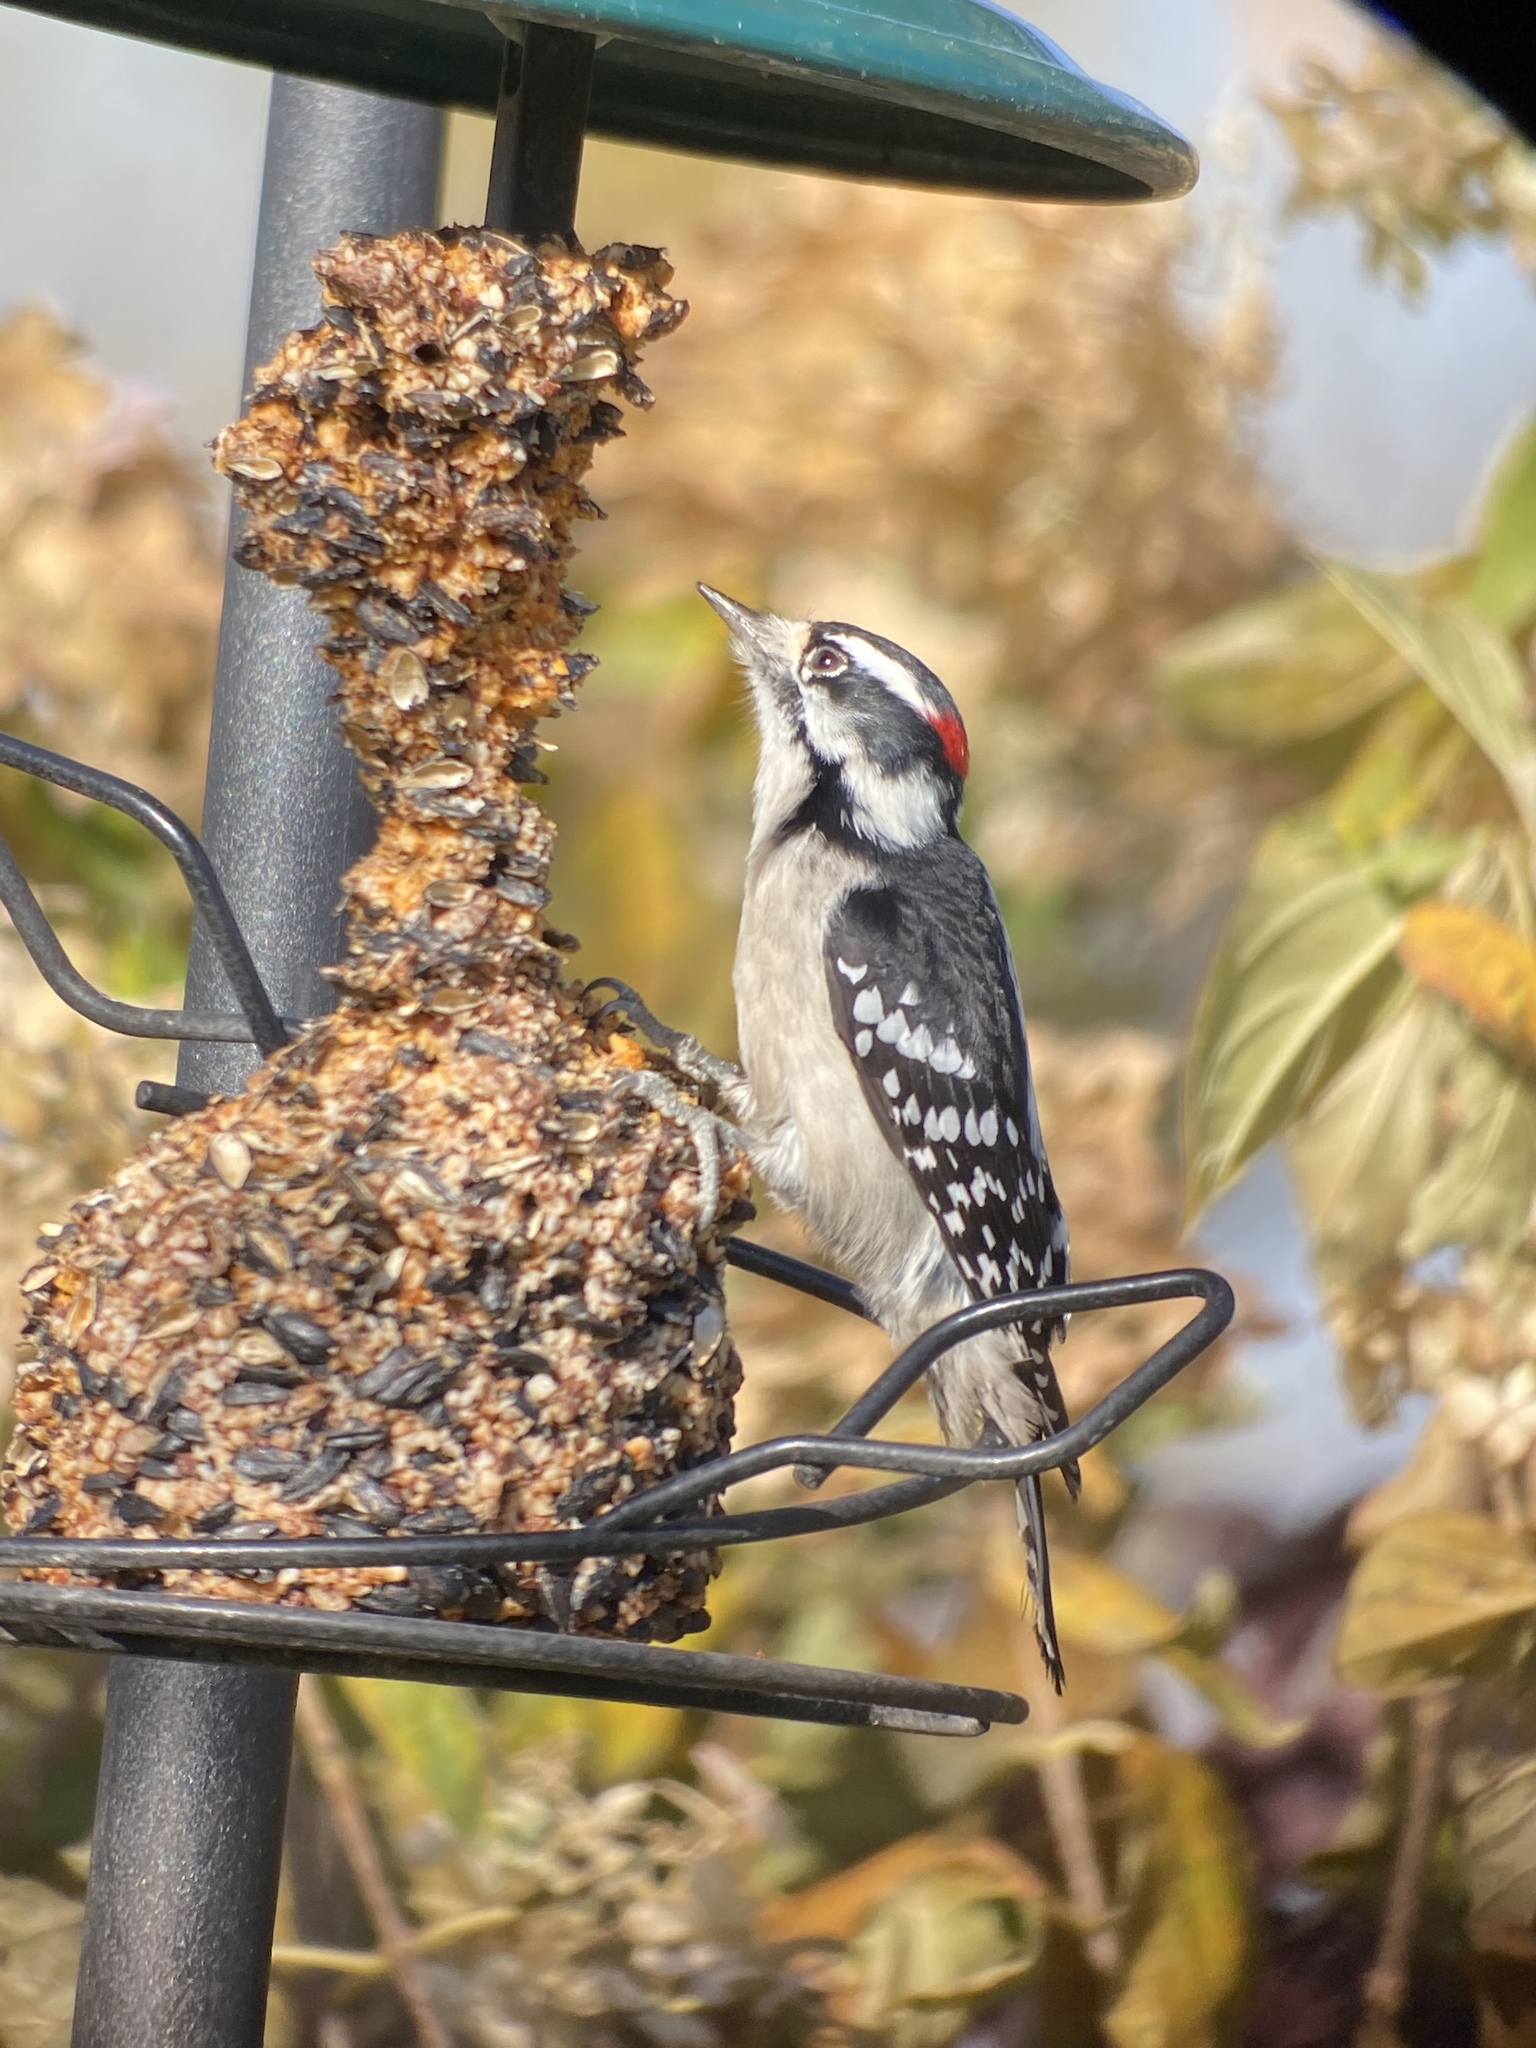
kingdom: Animalia
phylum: Chordata
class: Aves
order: Piciformes
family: Picidae
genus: Dryobates
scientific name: Dryobates pubescens
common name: Downy woodpecker
